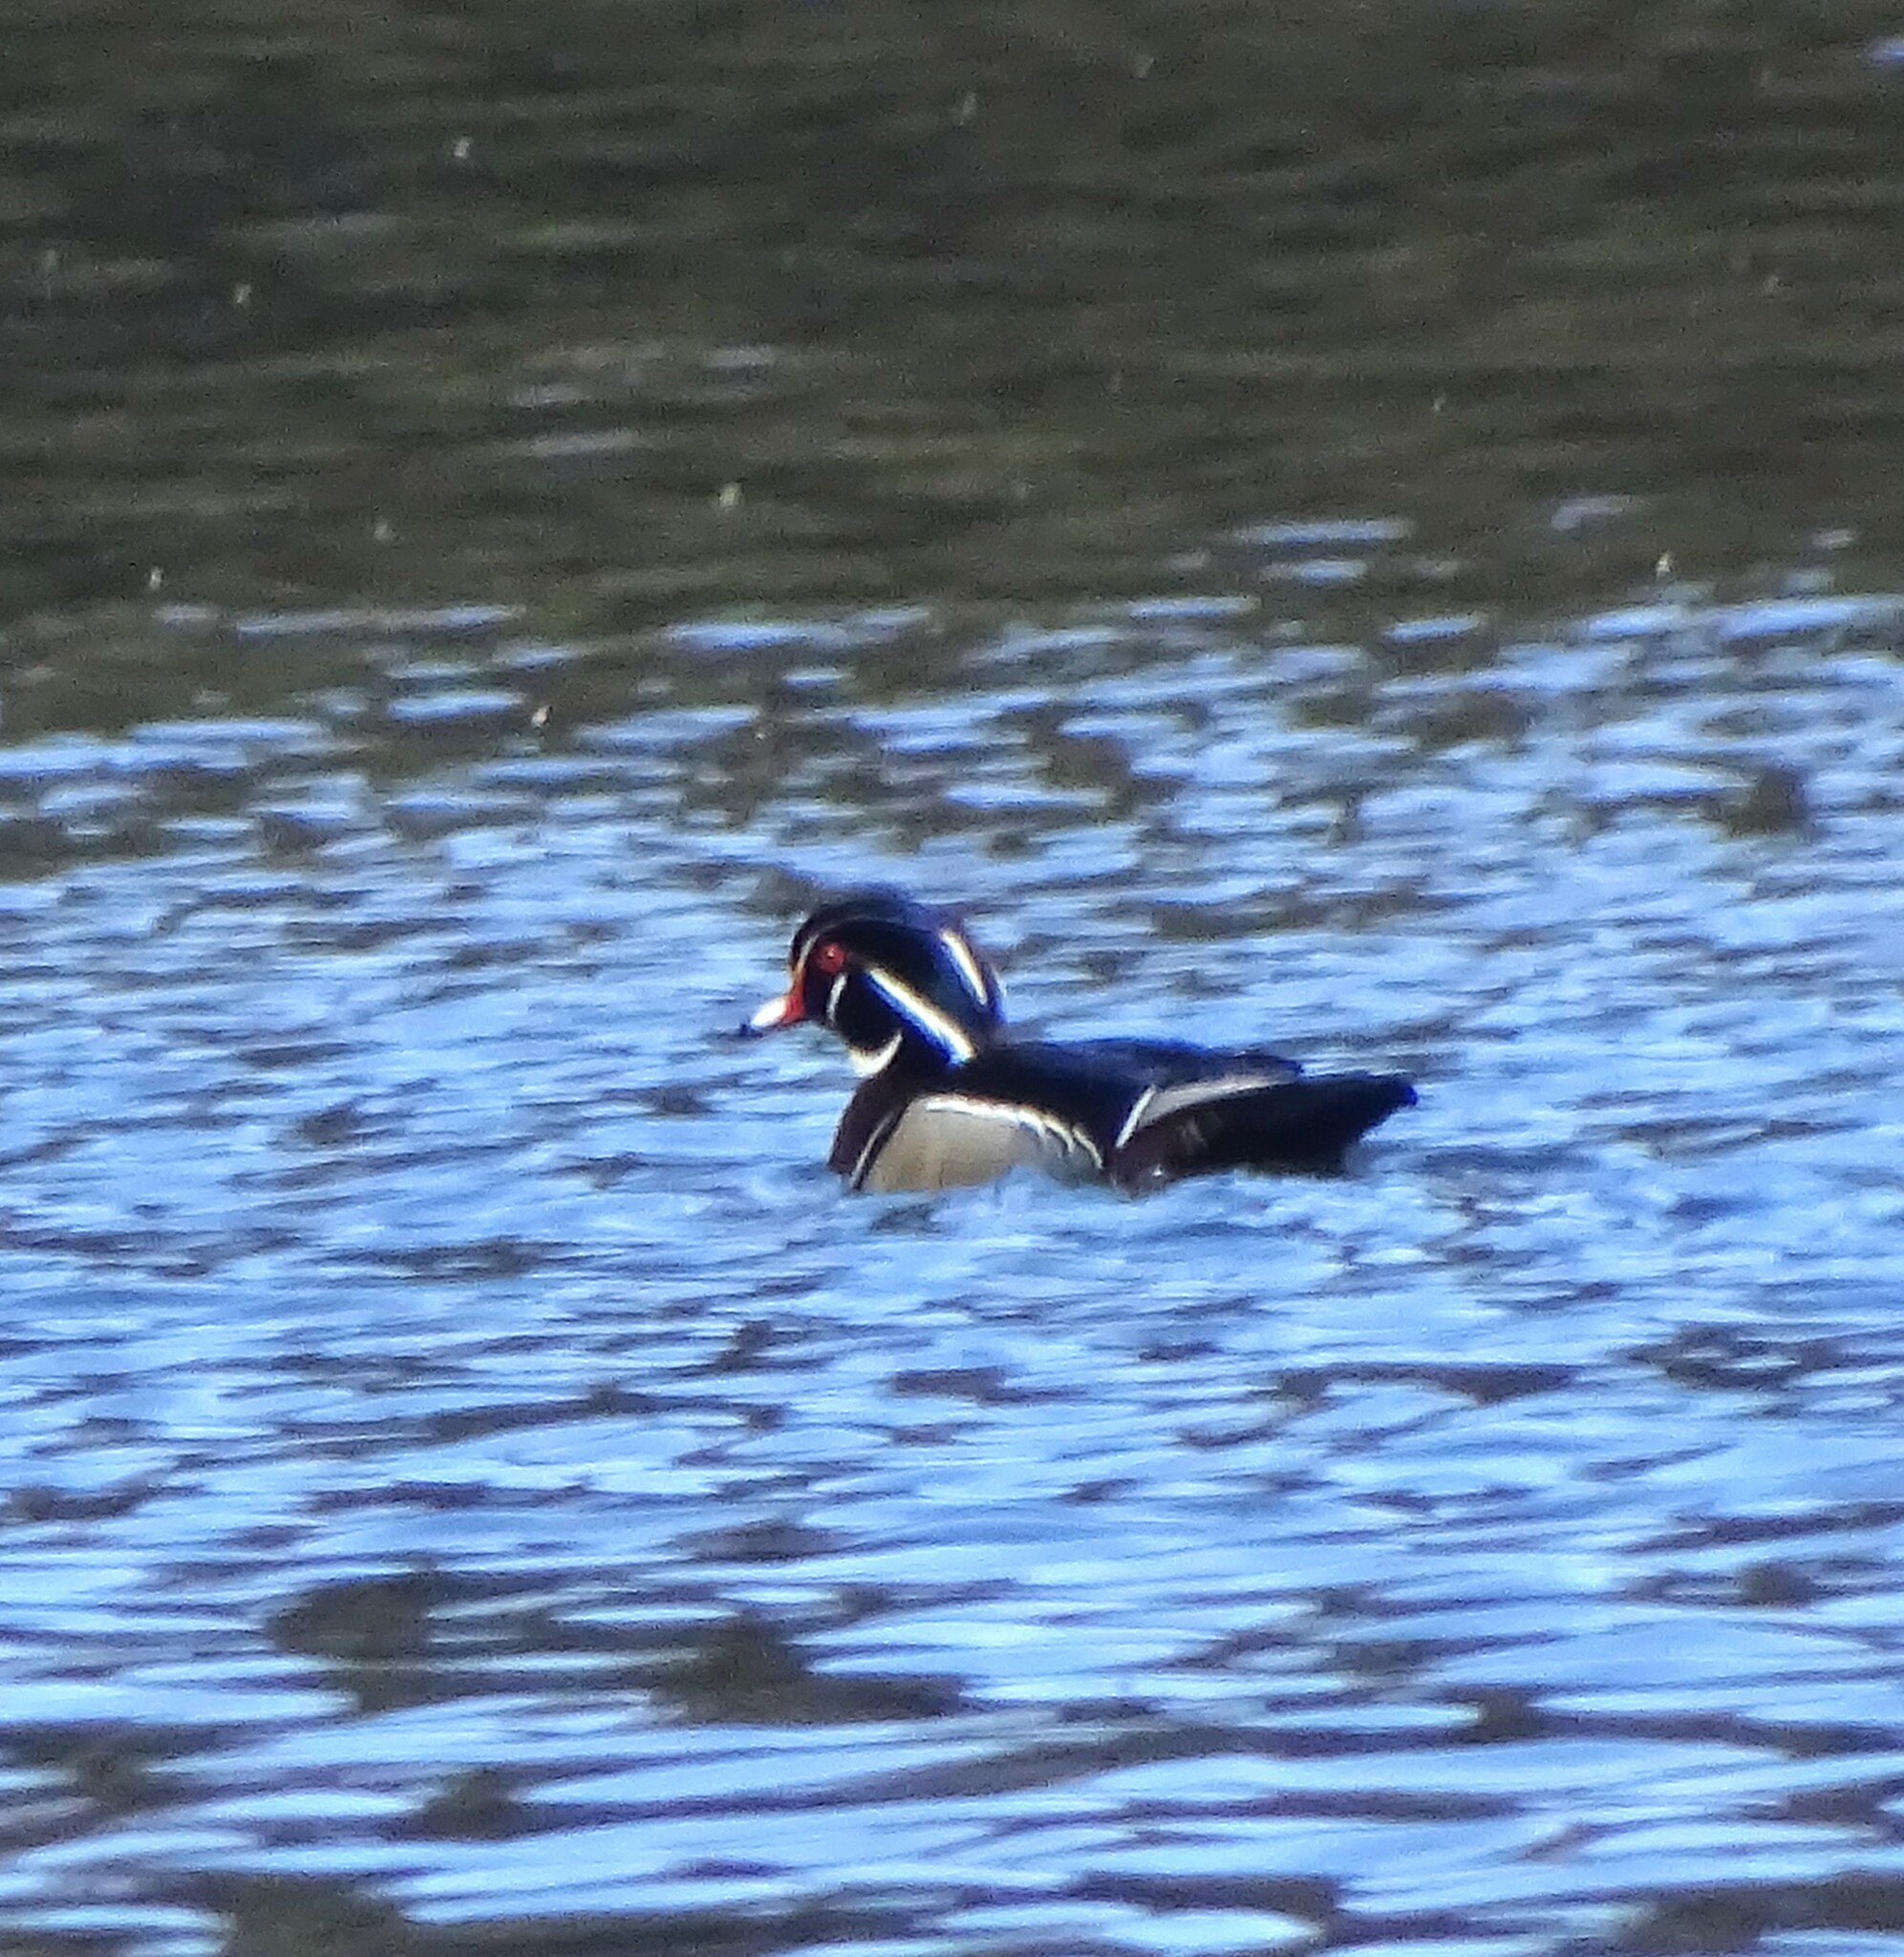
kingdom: Animalia
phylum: Chordata
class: Aves
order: Anseriformes
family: Anatidae
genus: Aix
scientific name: Aix sponsa
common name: Wood duck
